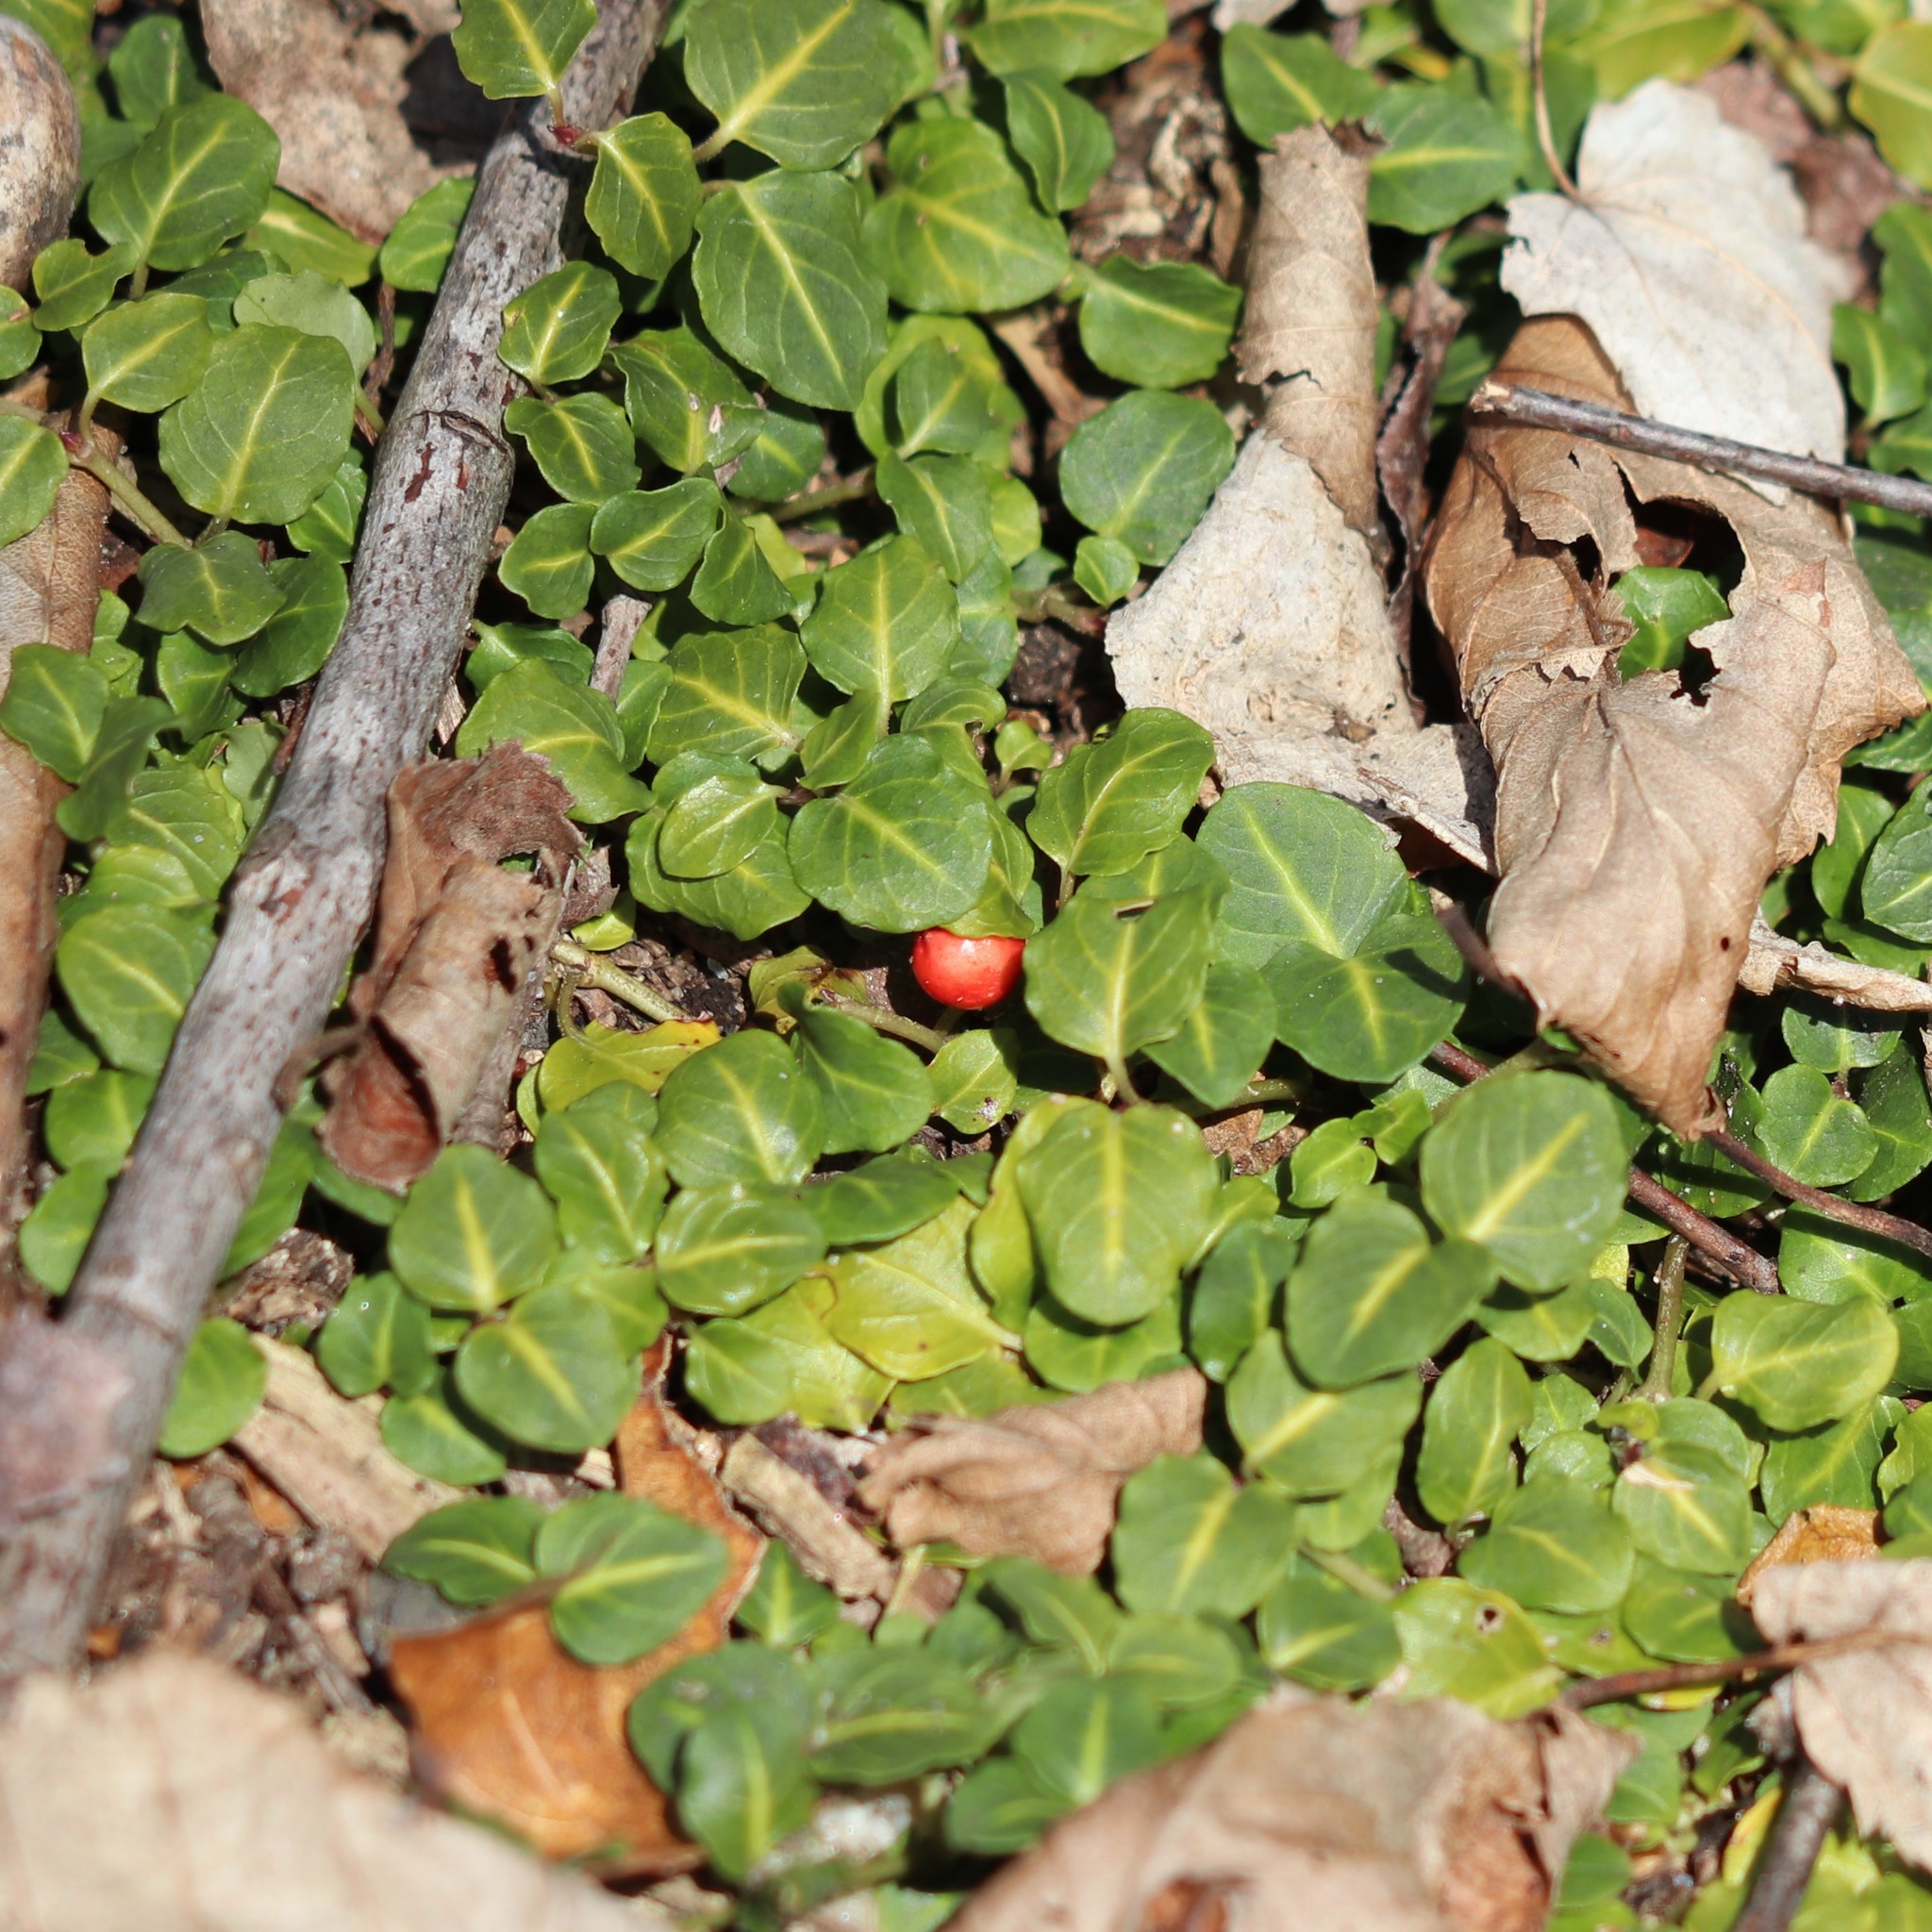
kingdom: Plantae
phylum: Tracheophyta
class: Magnoliopsida
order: Gentianales
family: Rubiaceae
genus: Mitchella
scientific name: Mitchella repens
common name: Partridge-berry
